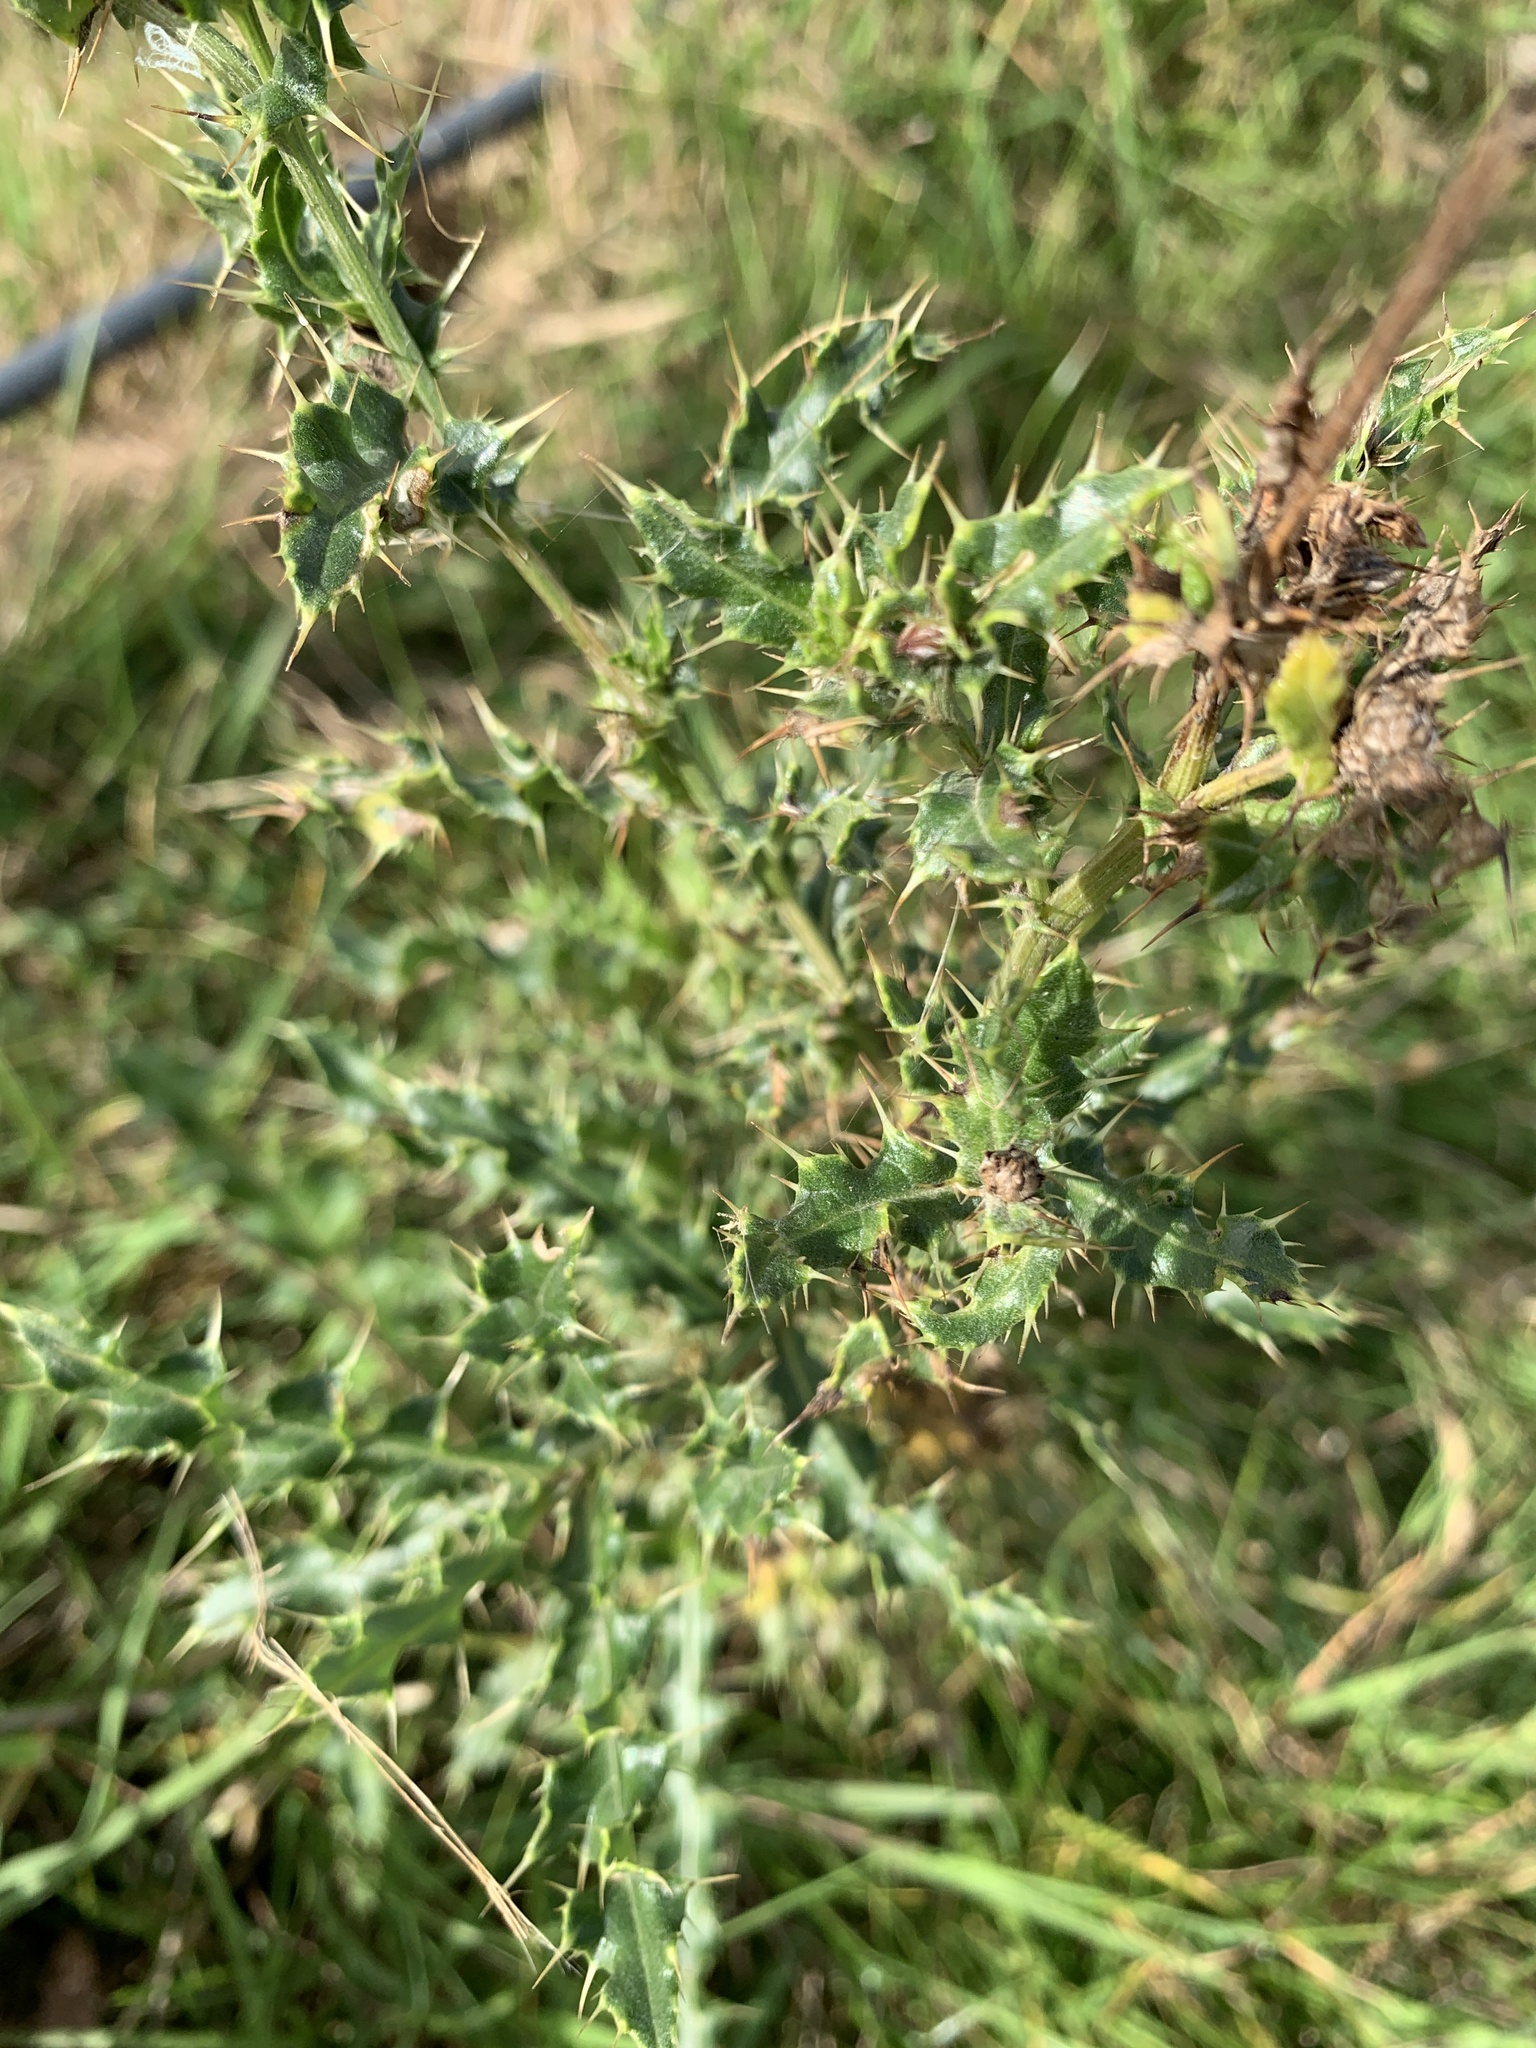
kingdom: Plantae
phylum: Tracheophyta
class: Magnoliopsida
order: Asterales
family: Asteraceae
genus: Cirsium
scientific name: Cirsium arvense
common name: Creeping thistle
